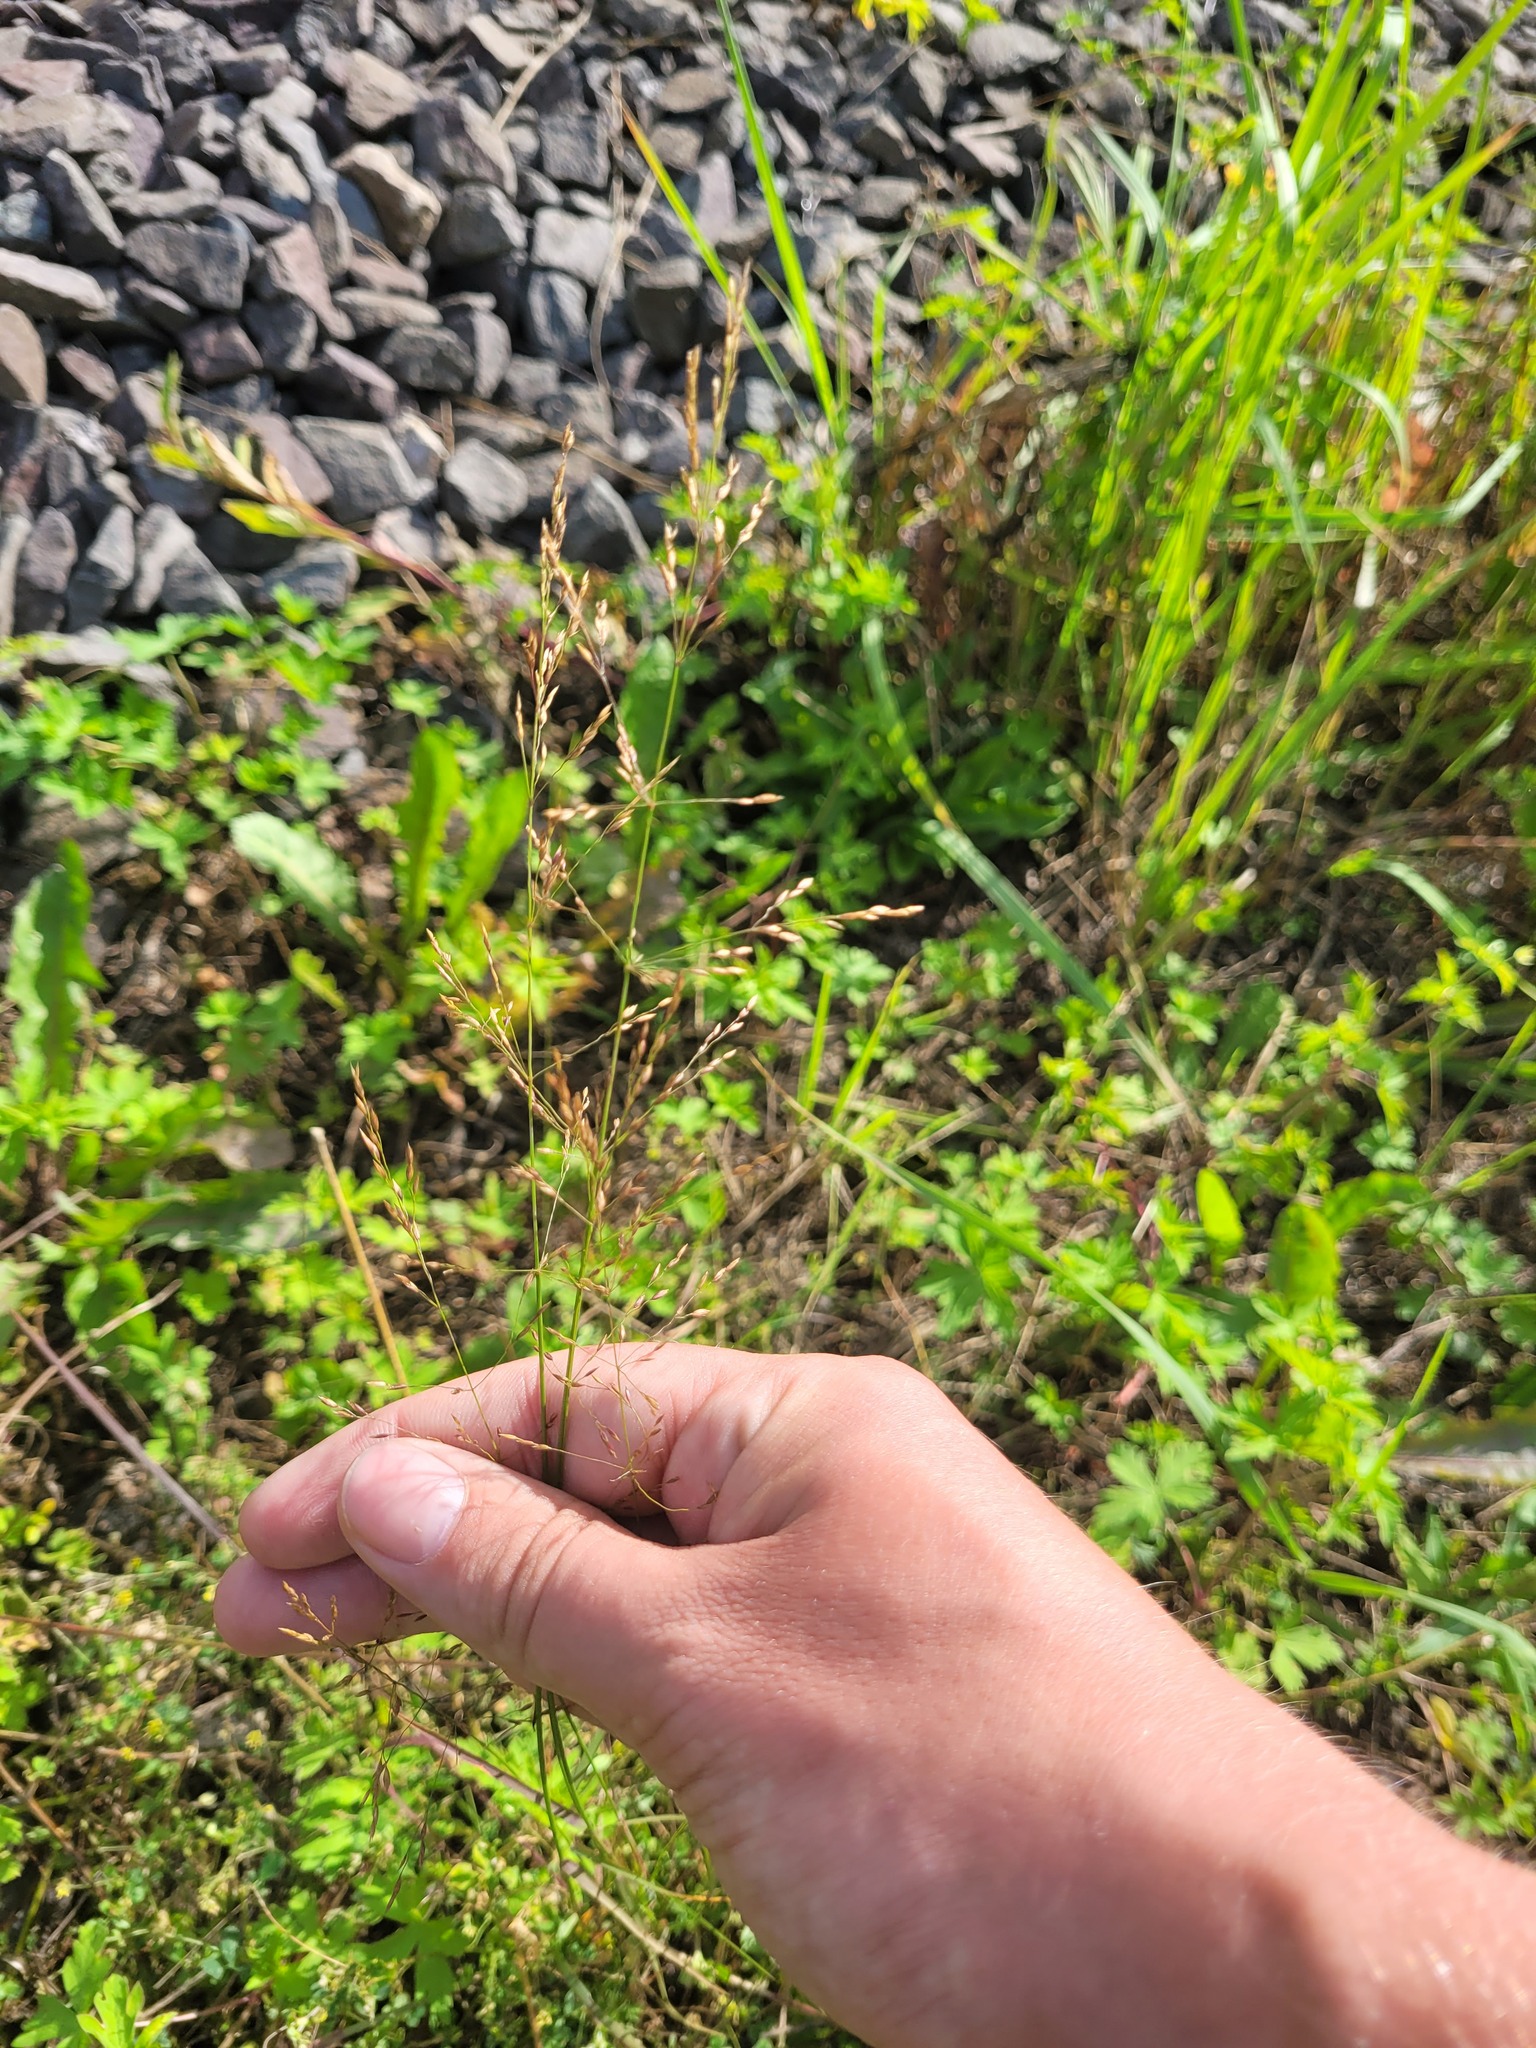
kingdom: Plantae
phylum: Tracheophyta
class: Liliopsida
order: Poales
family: Poaceae
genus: Poa
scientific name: Poa palustris
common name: Swamp meadow-grass
